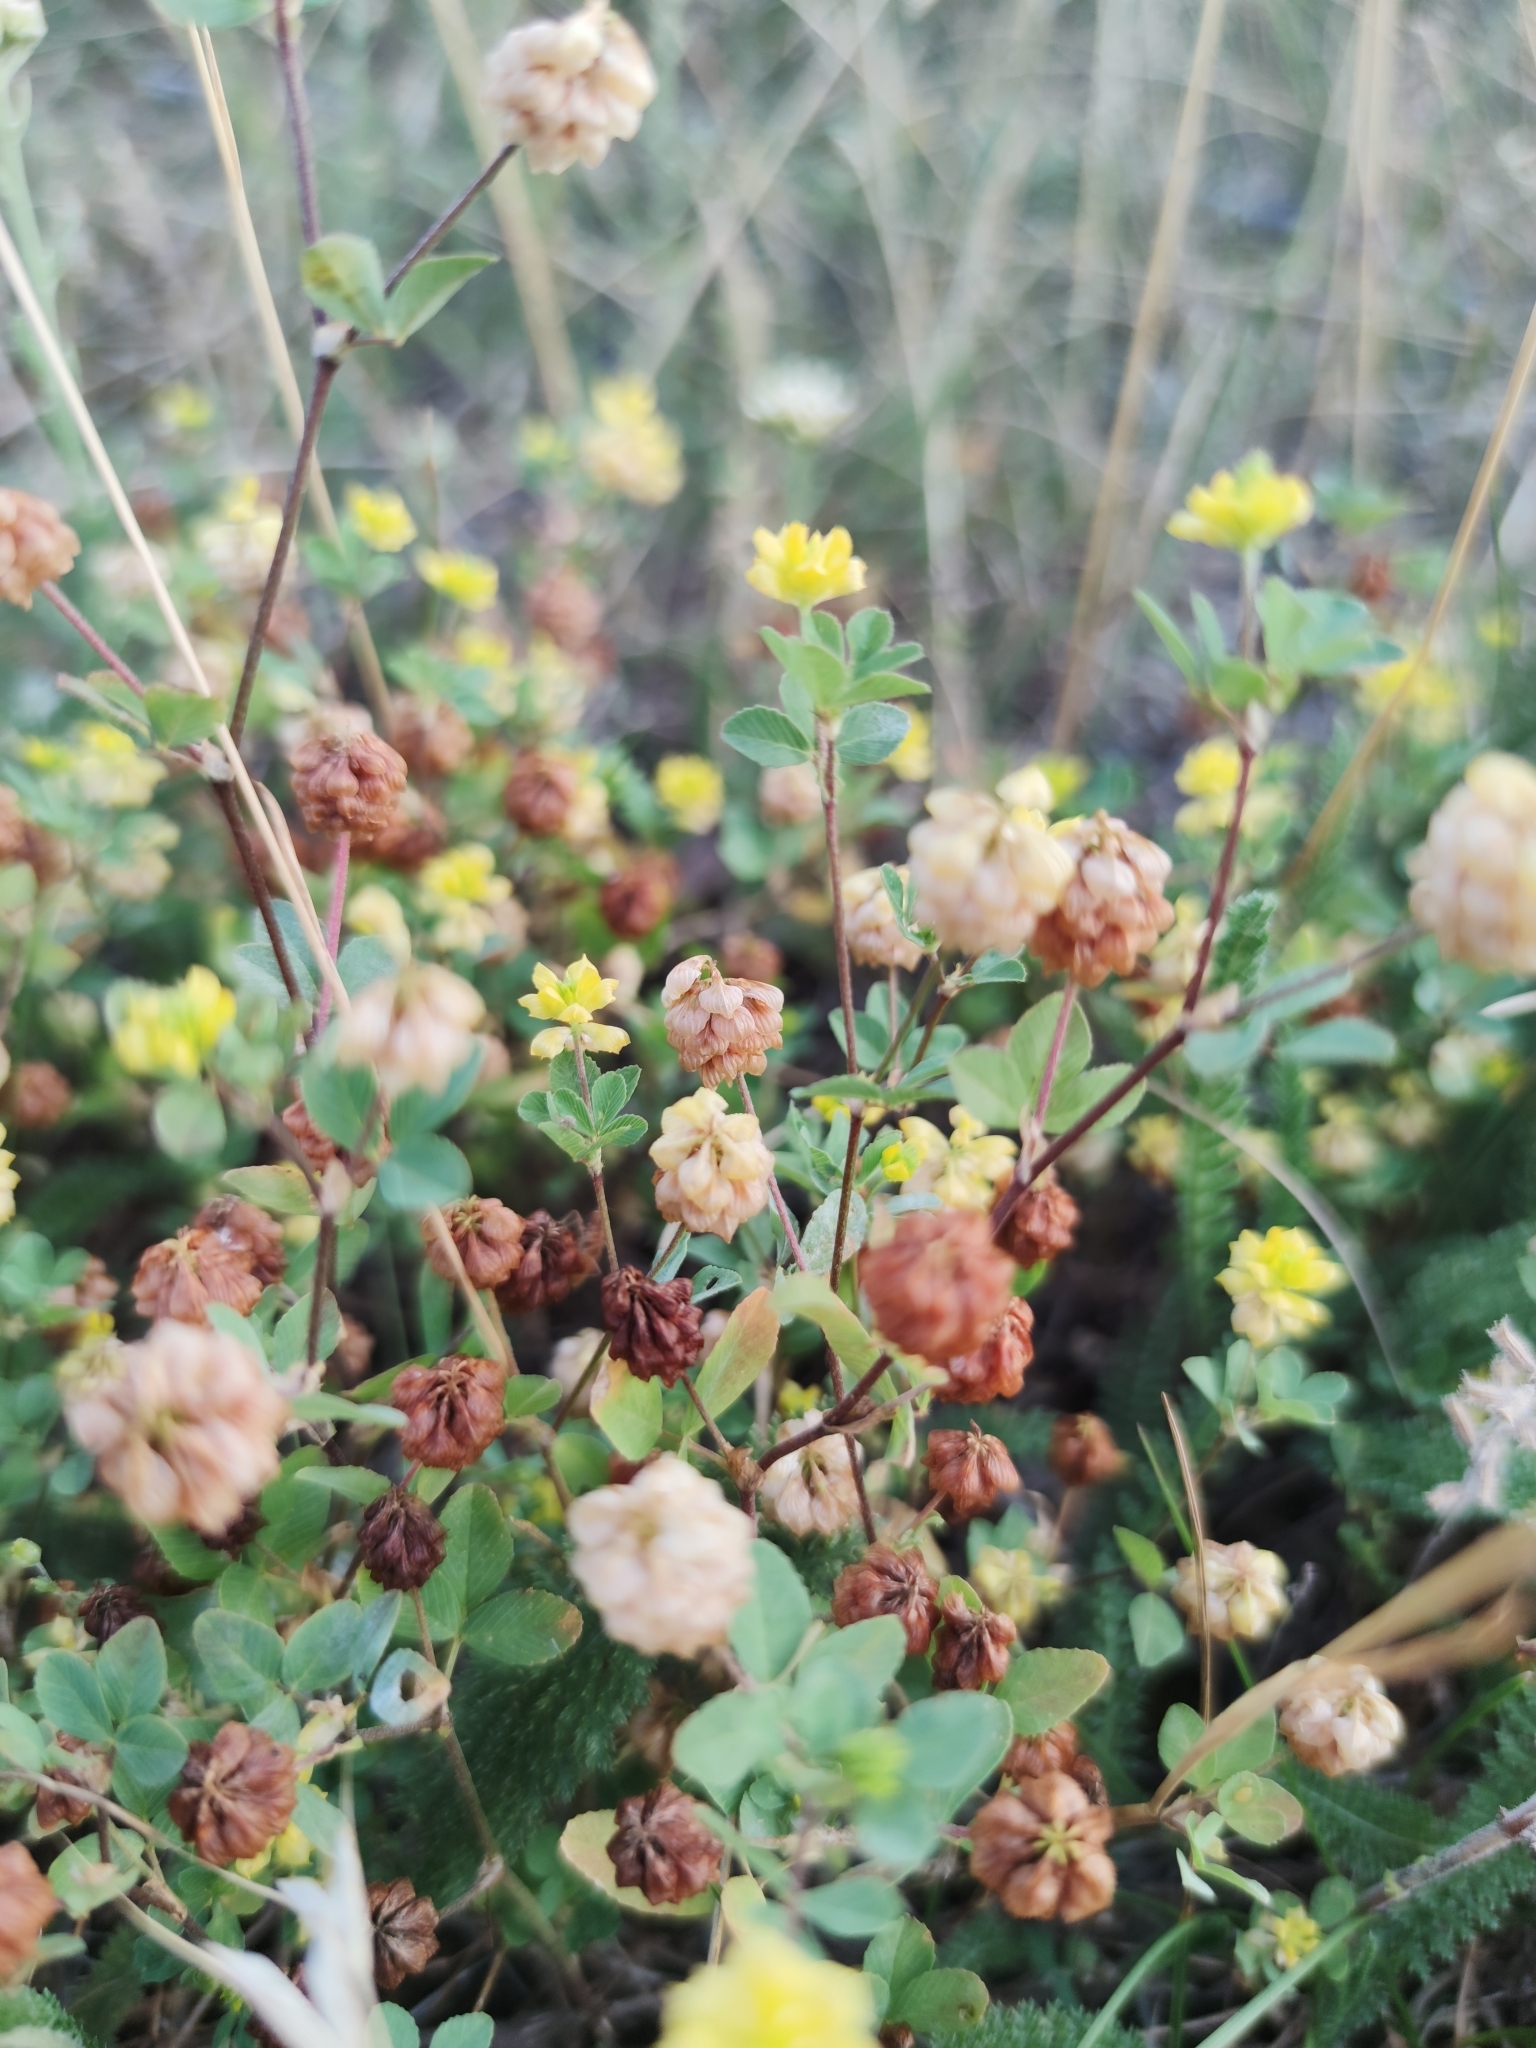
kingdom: Plantae
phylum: Tracheophyta
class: Magnoliopsida
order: Fabales
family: Fabaceae
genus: Trifolium
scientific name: Trifolium campestre
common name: Field clover
